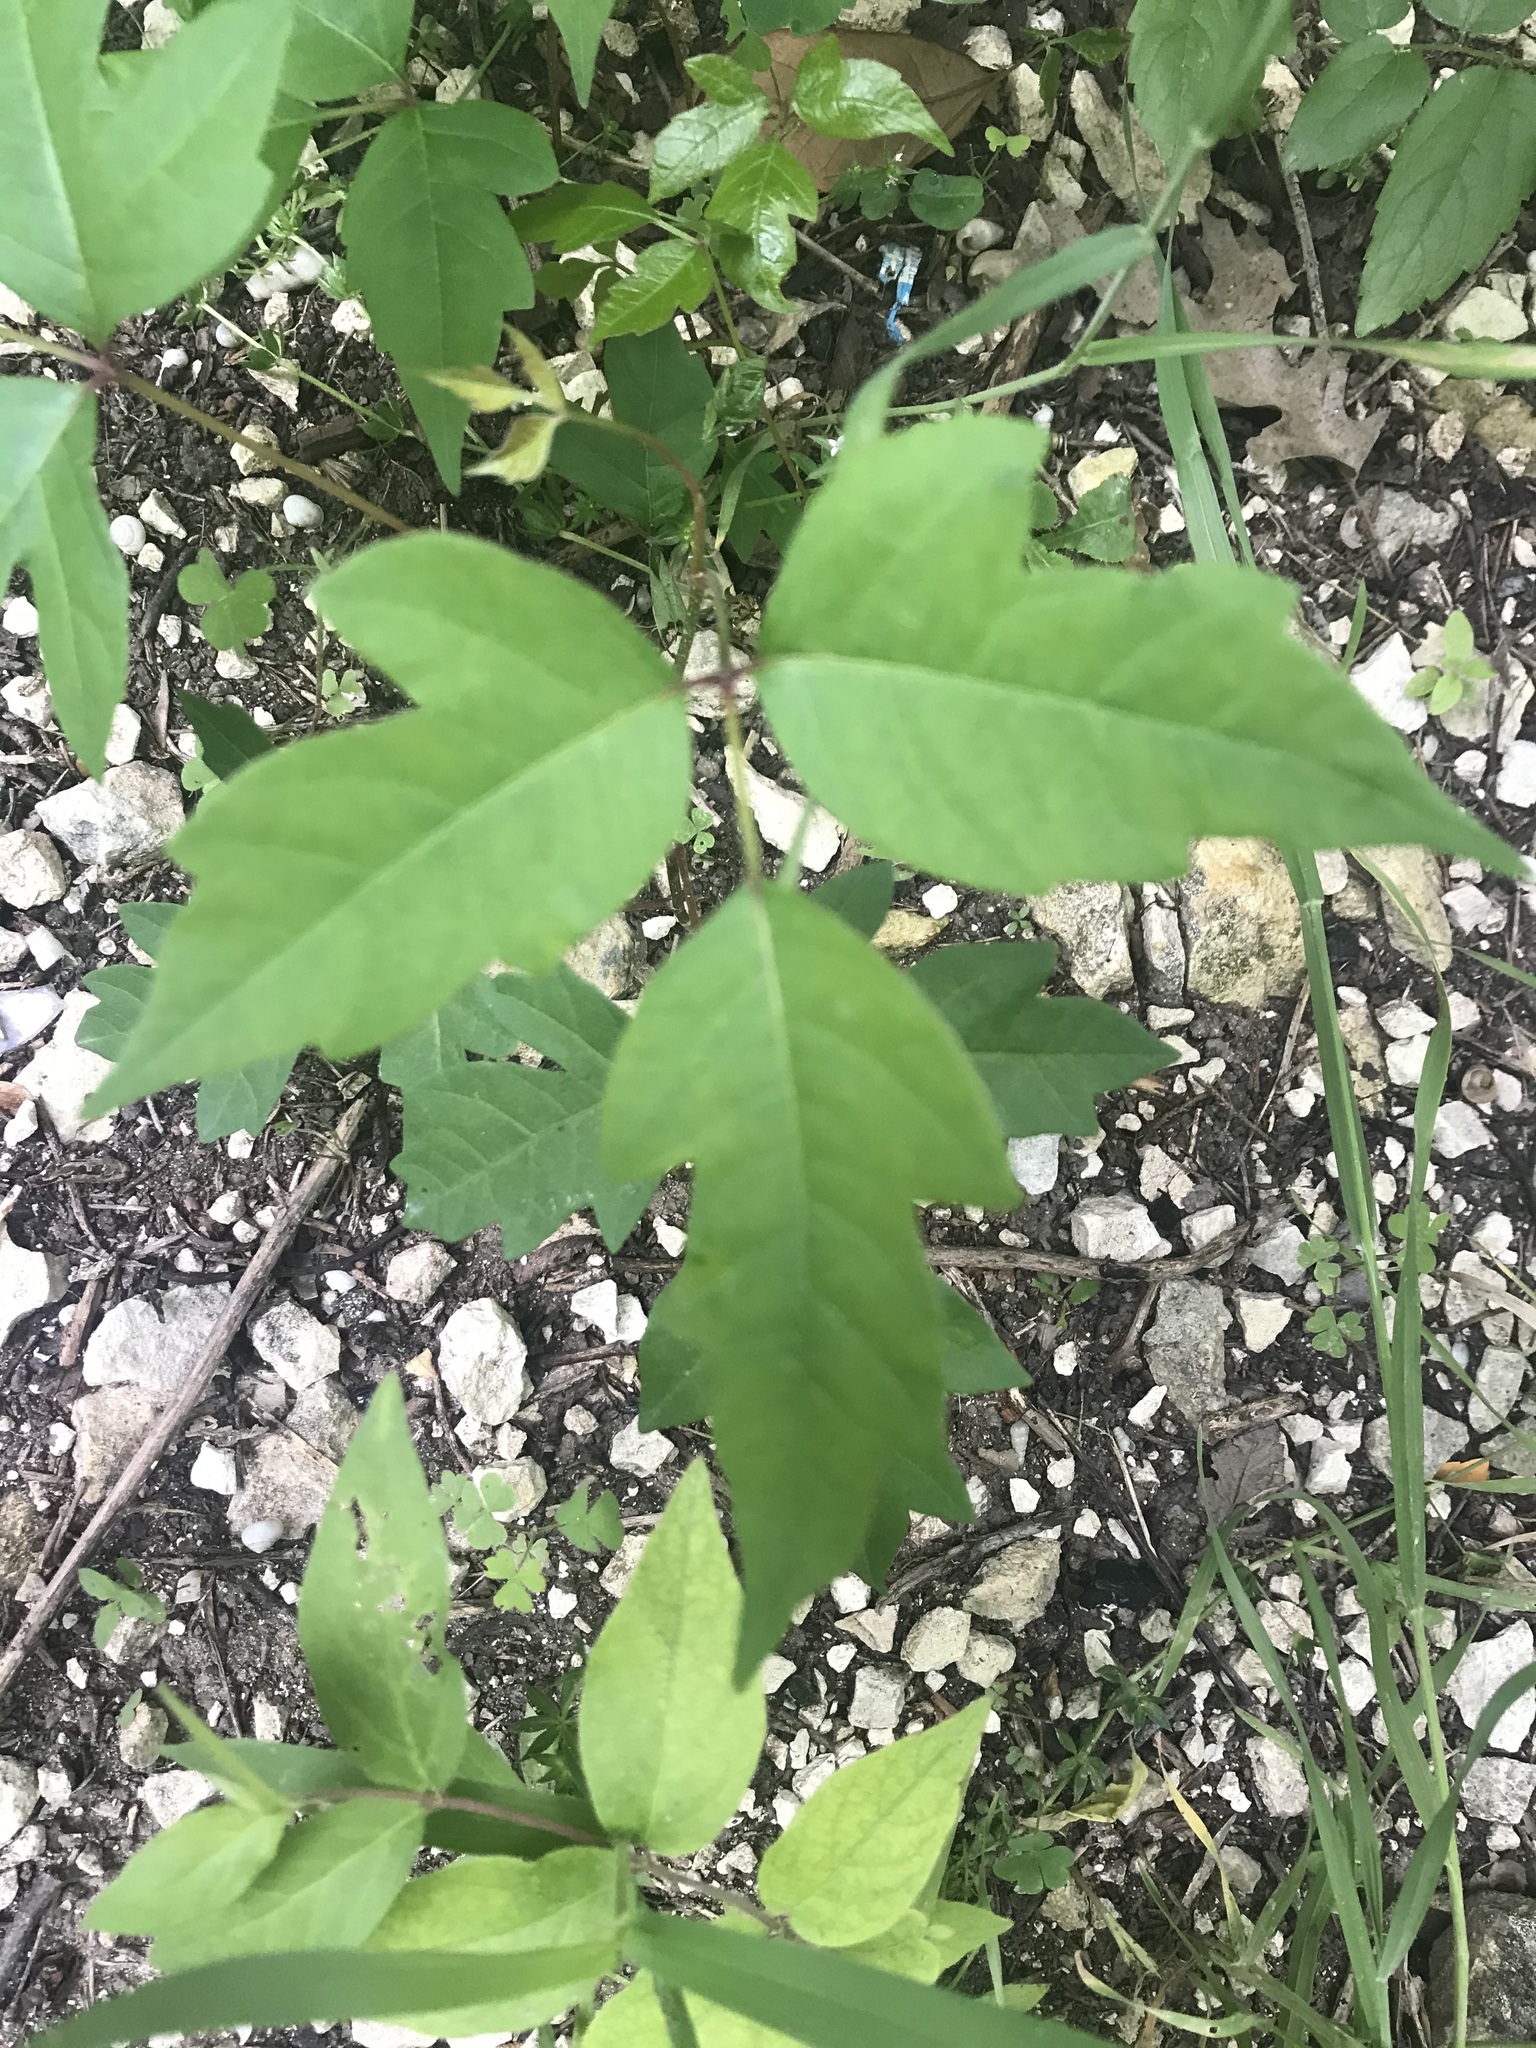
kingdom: Plantae
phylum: Tracheophyta
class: Magnoliopsida
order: Sapindales
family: Anacardiaceae
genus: Toxicodendron
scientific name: Toxicodendron radicans
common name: Poison ivy
